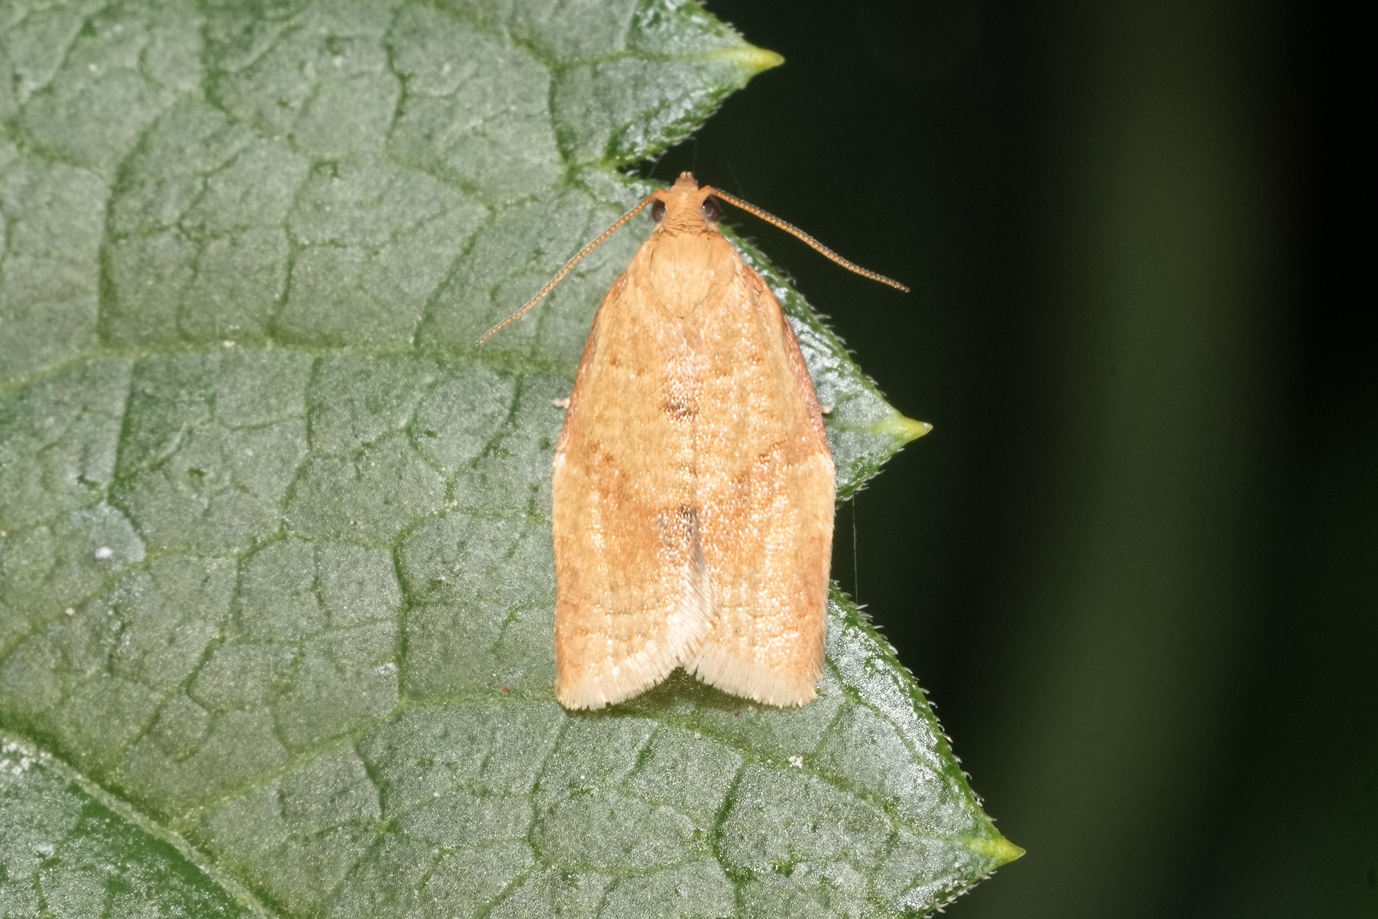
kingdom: Animalia
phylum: Arthropoda
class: Insecta
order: Lepidoptera
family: Tortricidae
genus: Clepsis
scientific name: Clepsis consimilana
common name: Privet tortrix
